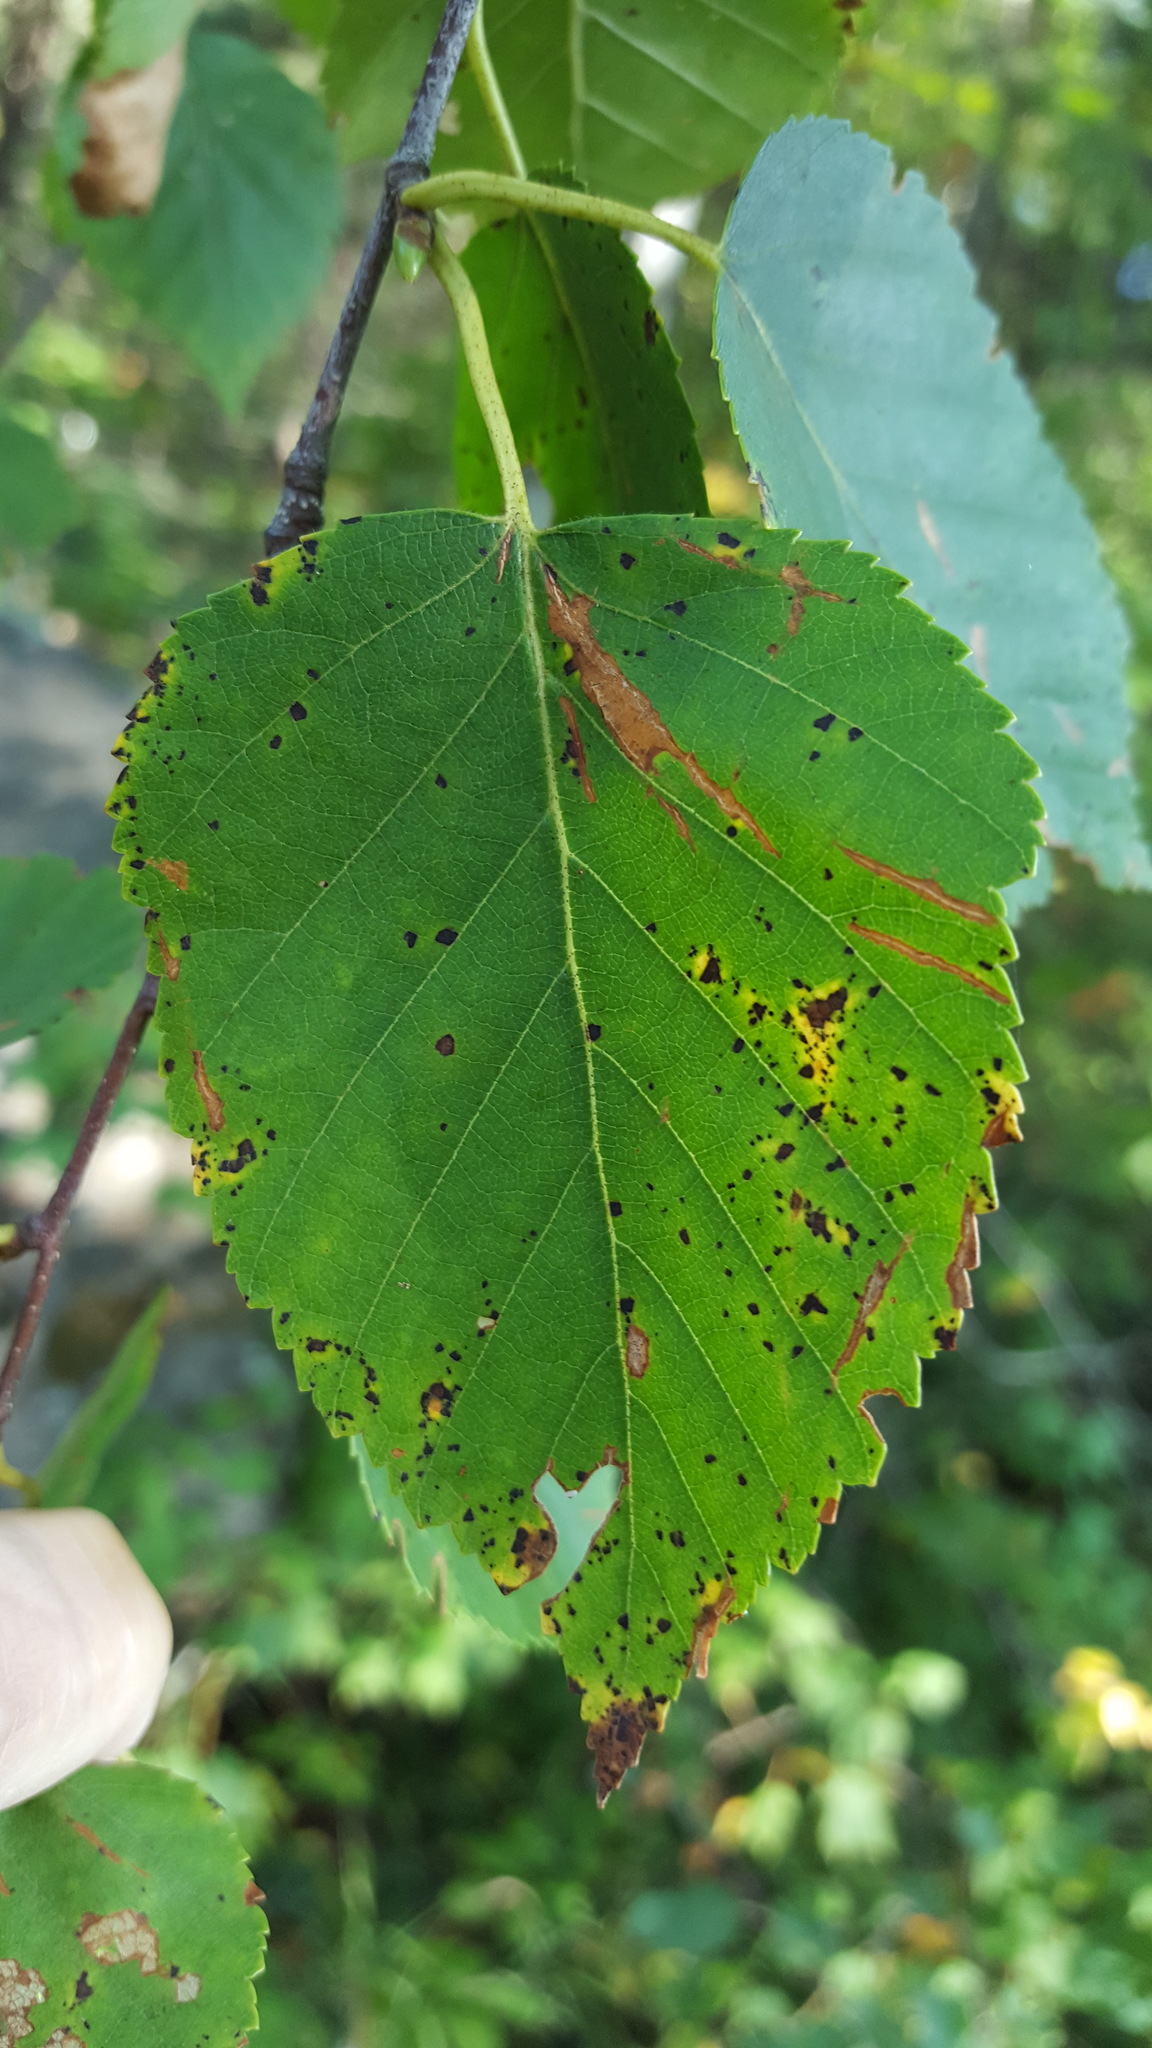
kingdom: Plantae
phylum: Tracheophyta
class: Magnoliopsida
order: Fagales
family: Betulaceae
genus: Betula
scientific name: Betula papyrifera
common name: Paper birch
